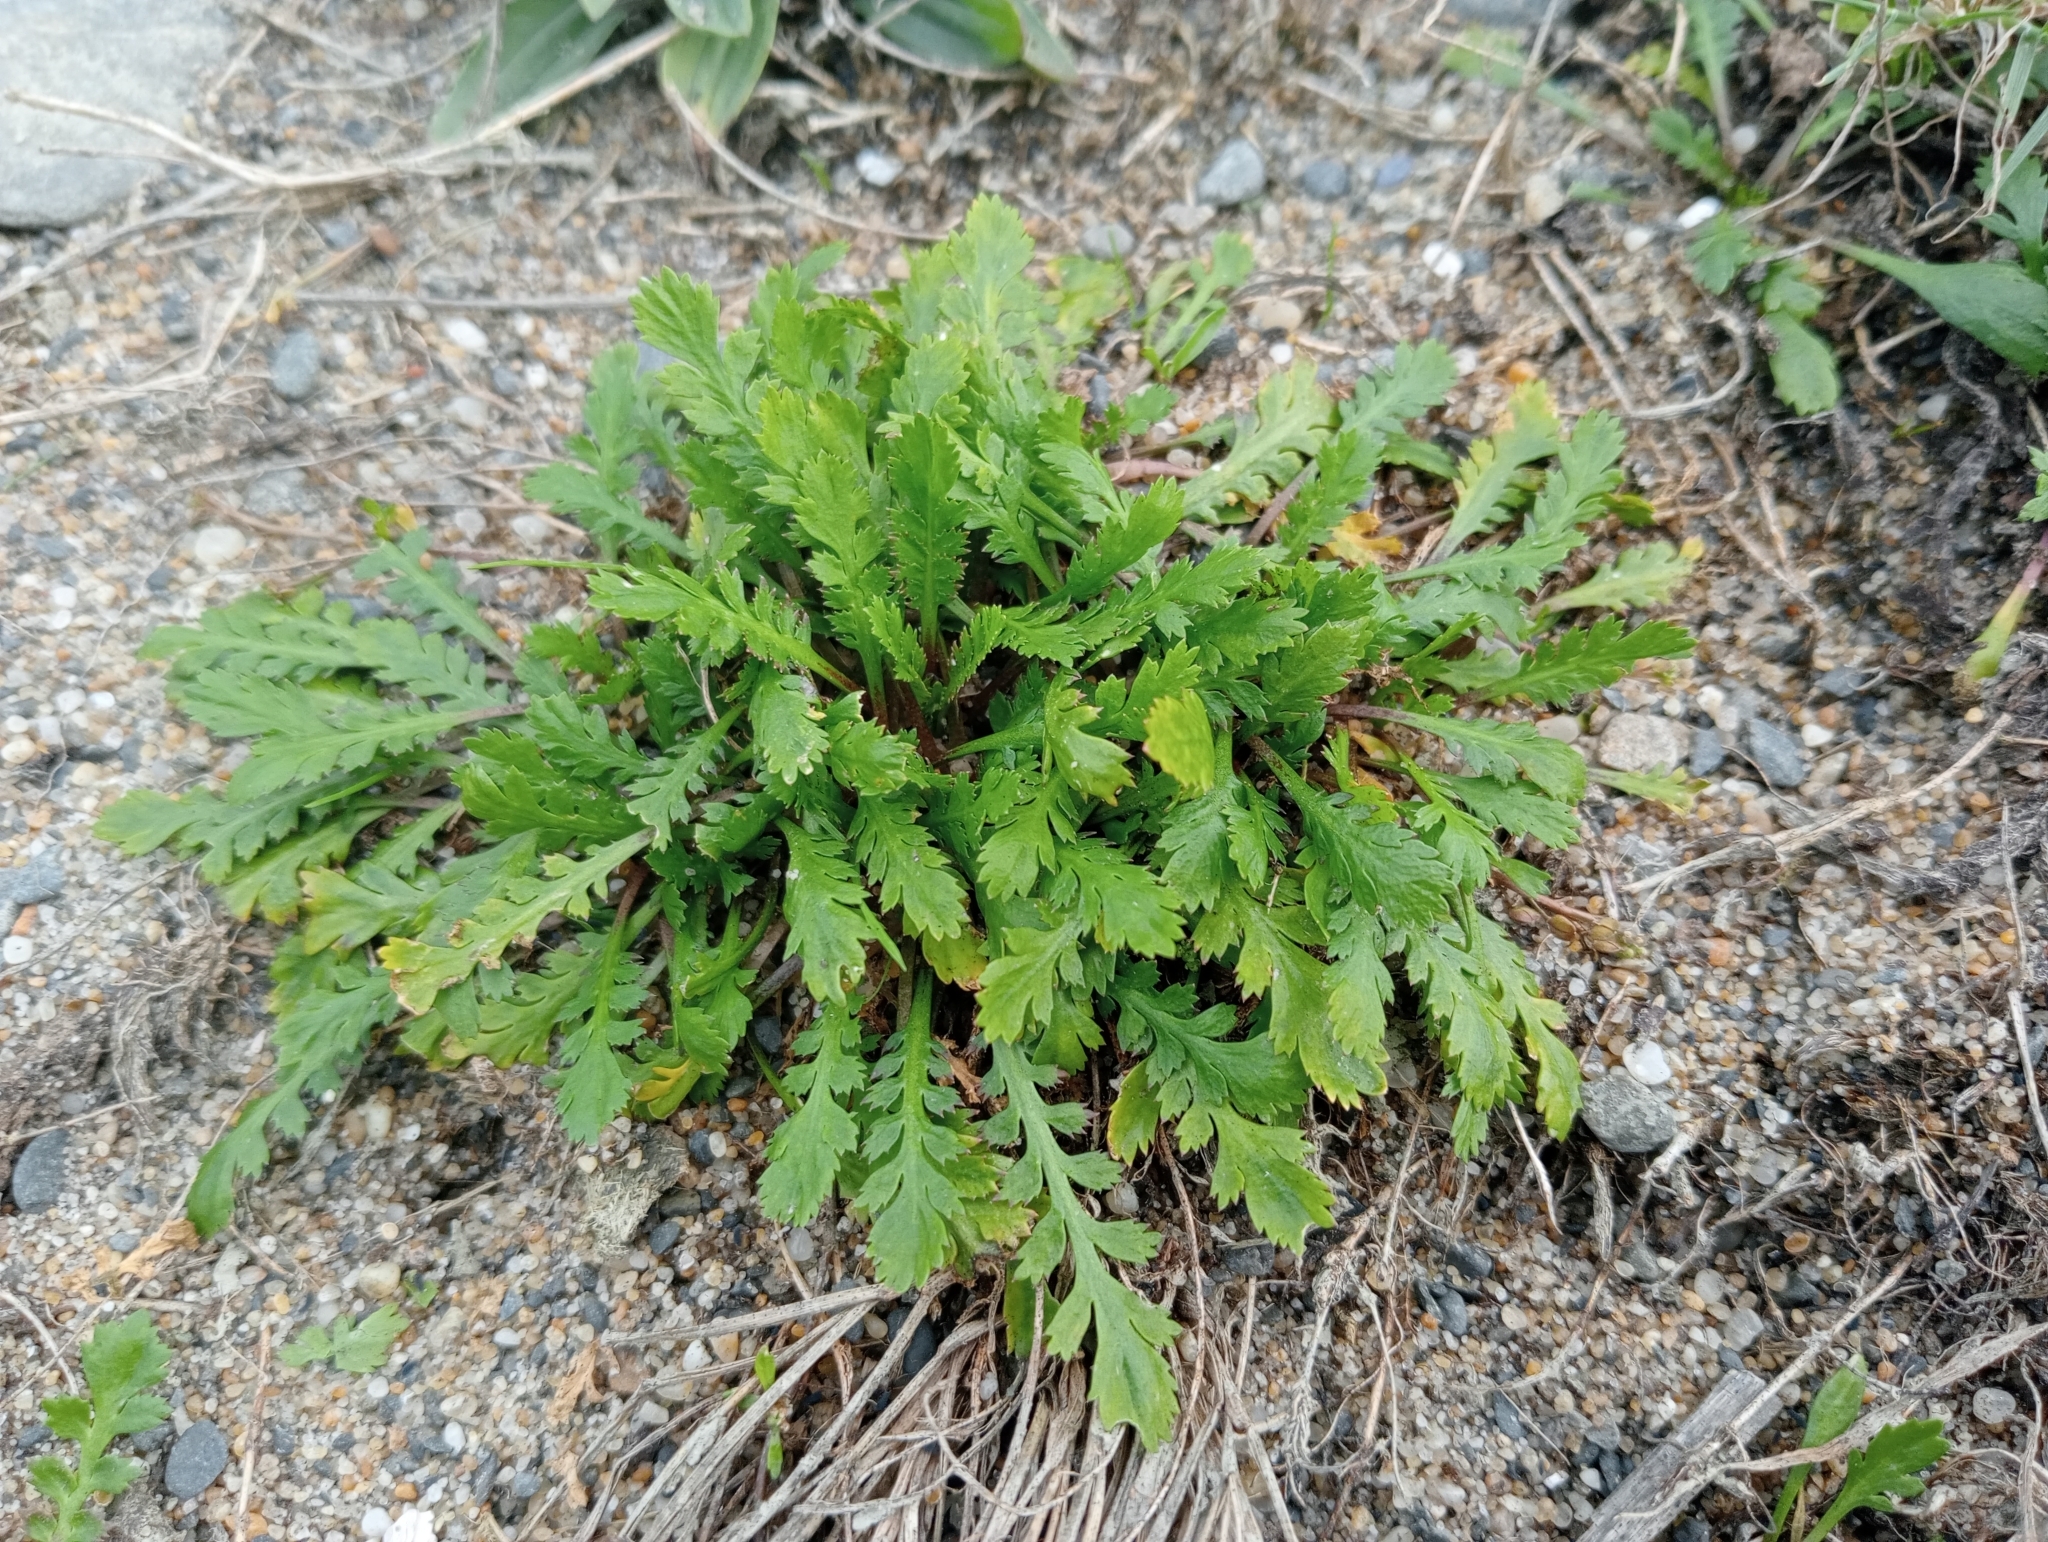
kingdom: Plantae
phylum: Tracheophyta
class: Magnoliopsida
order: Brassicales
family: Brassicaceae
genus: Lepidium
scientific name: Lepidium tenuicaule
